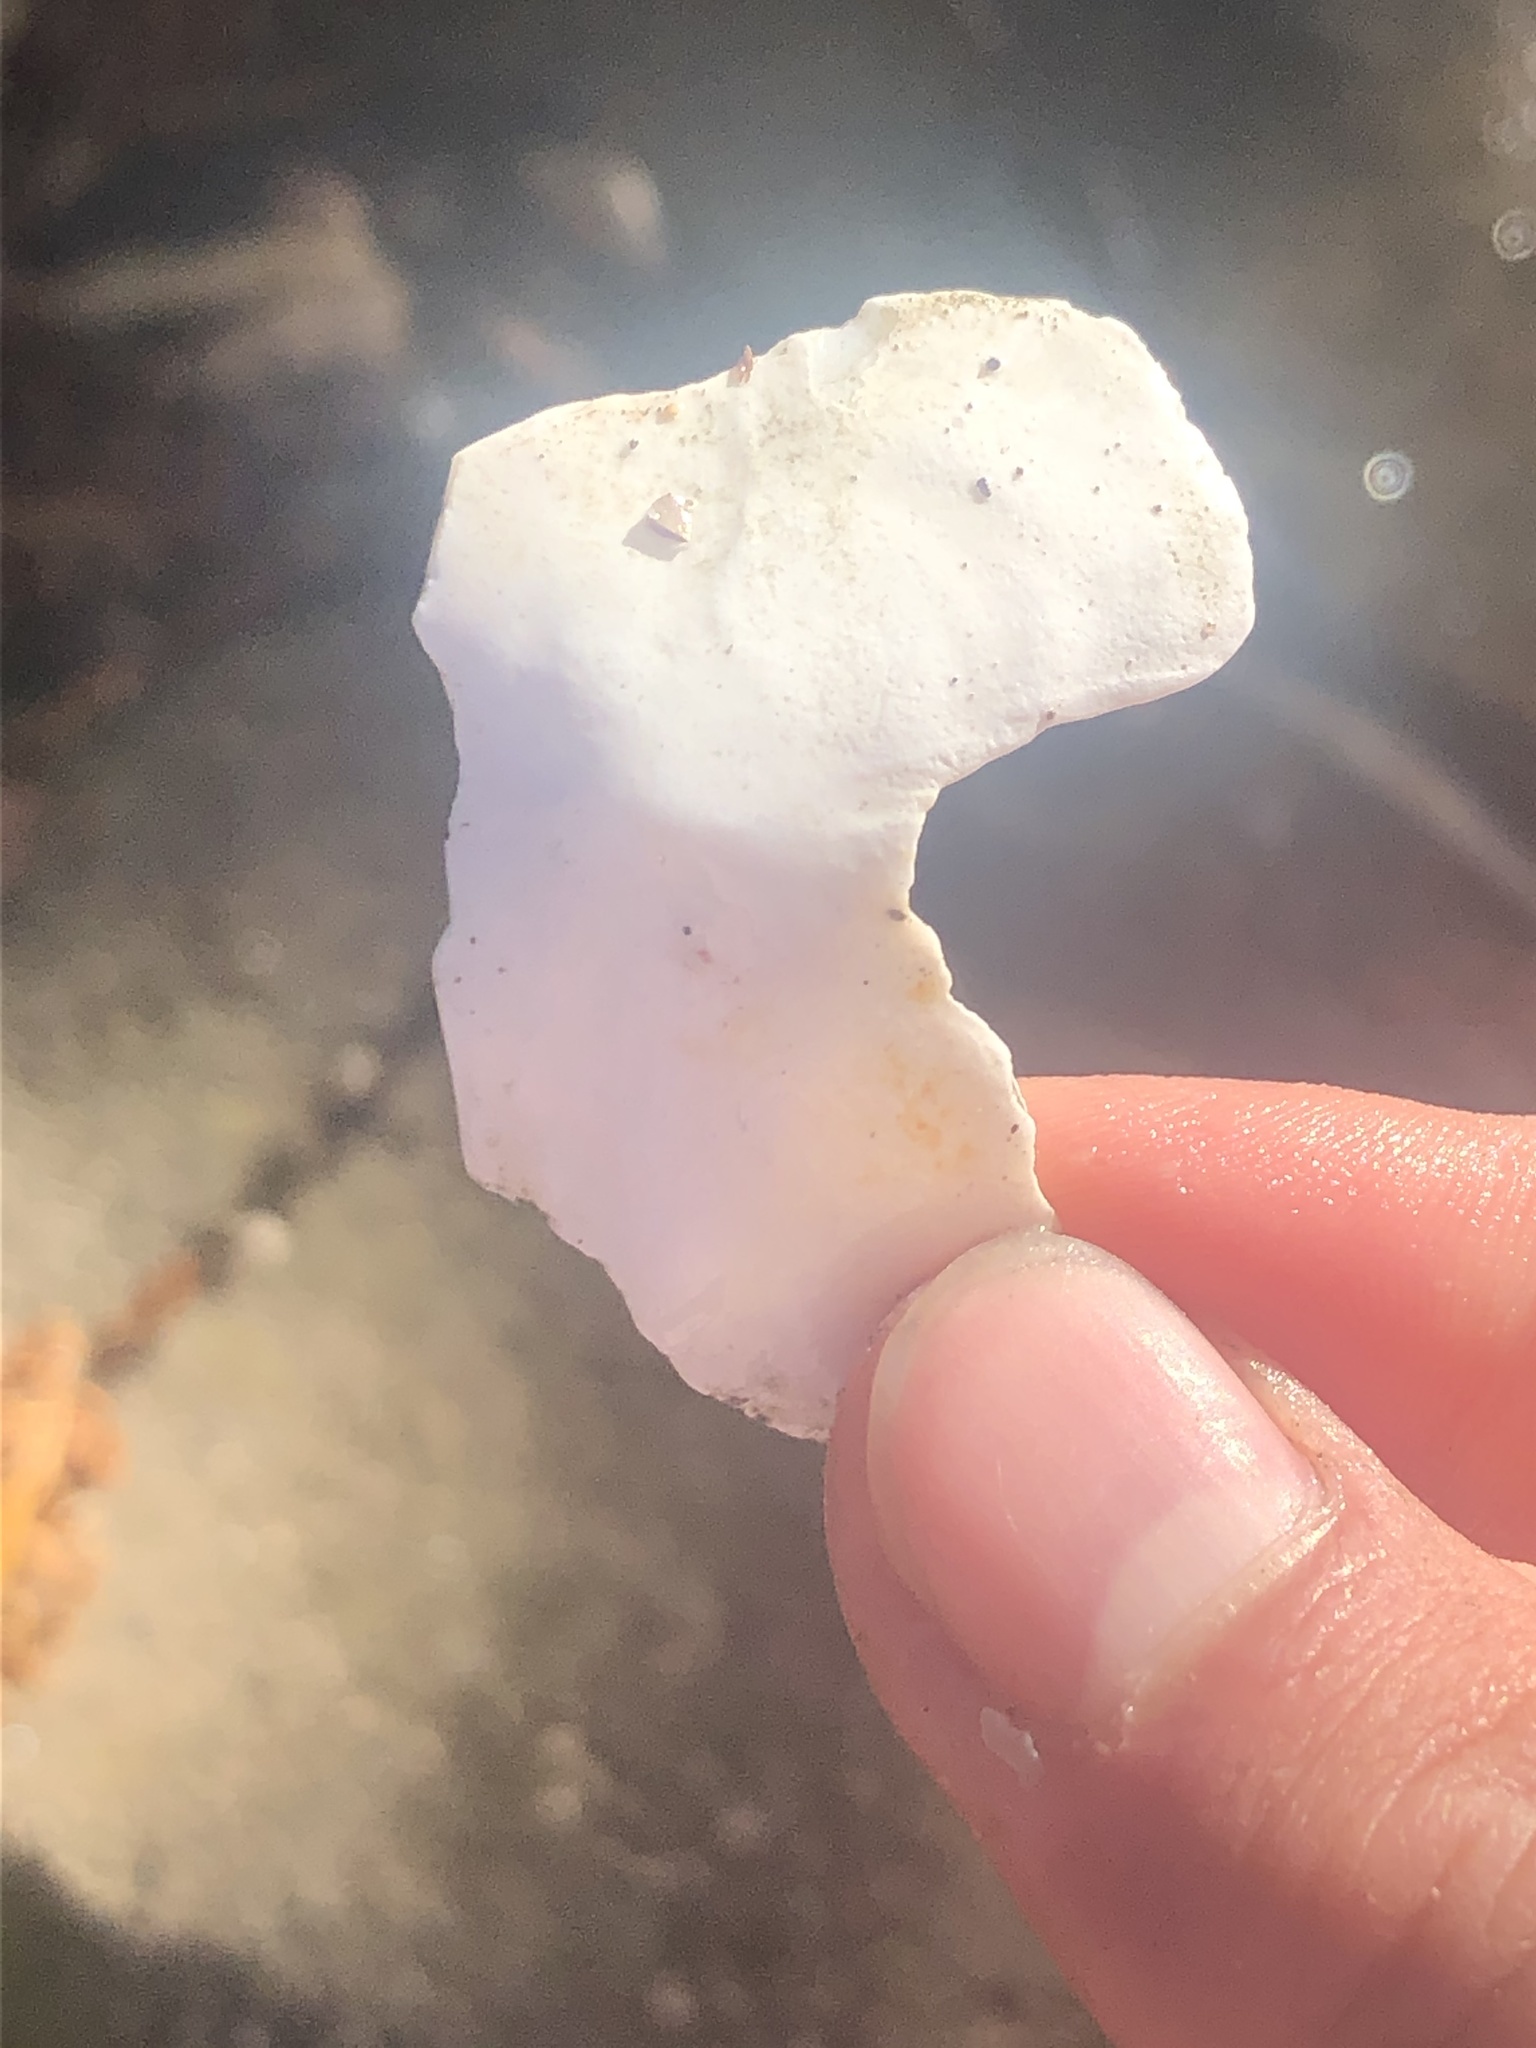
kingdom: Animalia
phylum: Mollusca
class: Polyplacophora
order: Chitonida
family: Acanthochitonidae
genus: Cryptochiton
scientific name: Cryptochiton stelleri
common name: Giant pacific chiton
